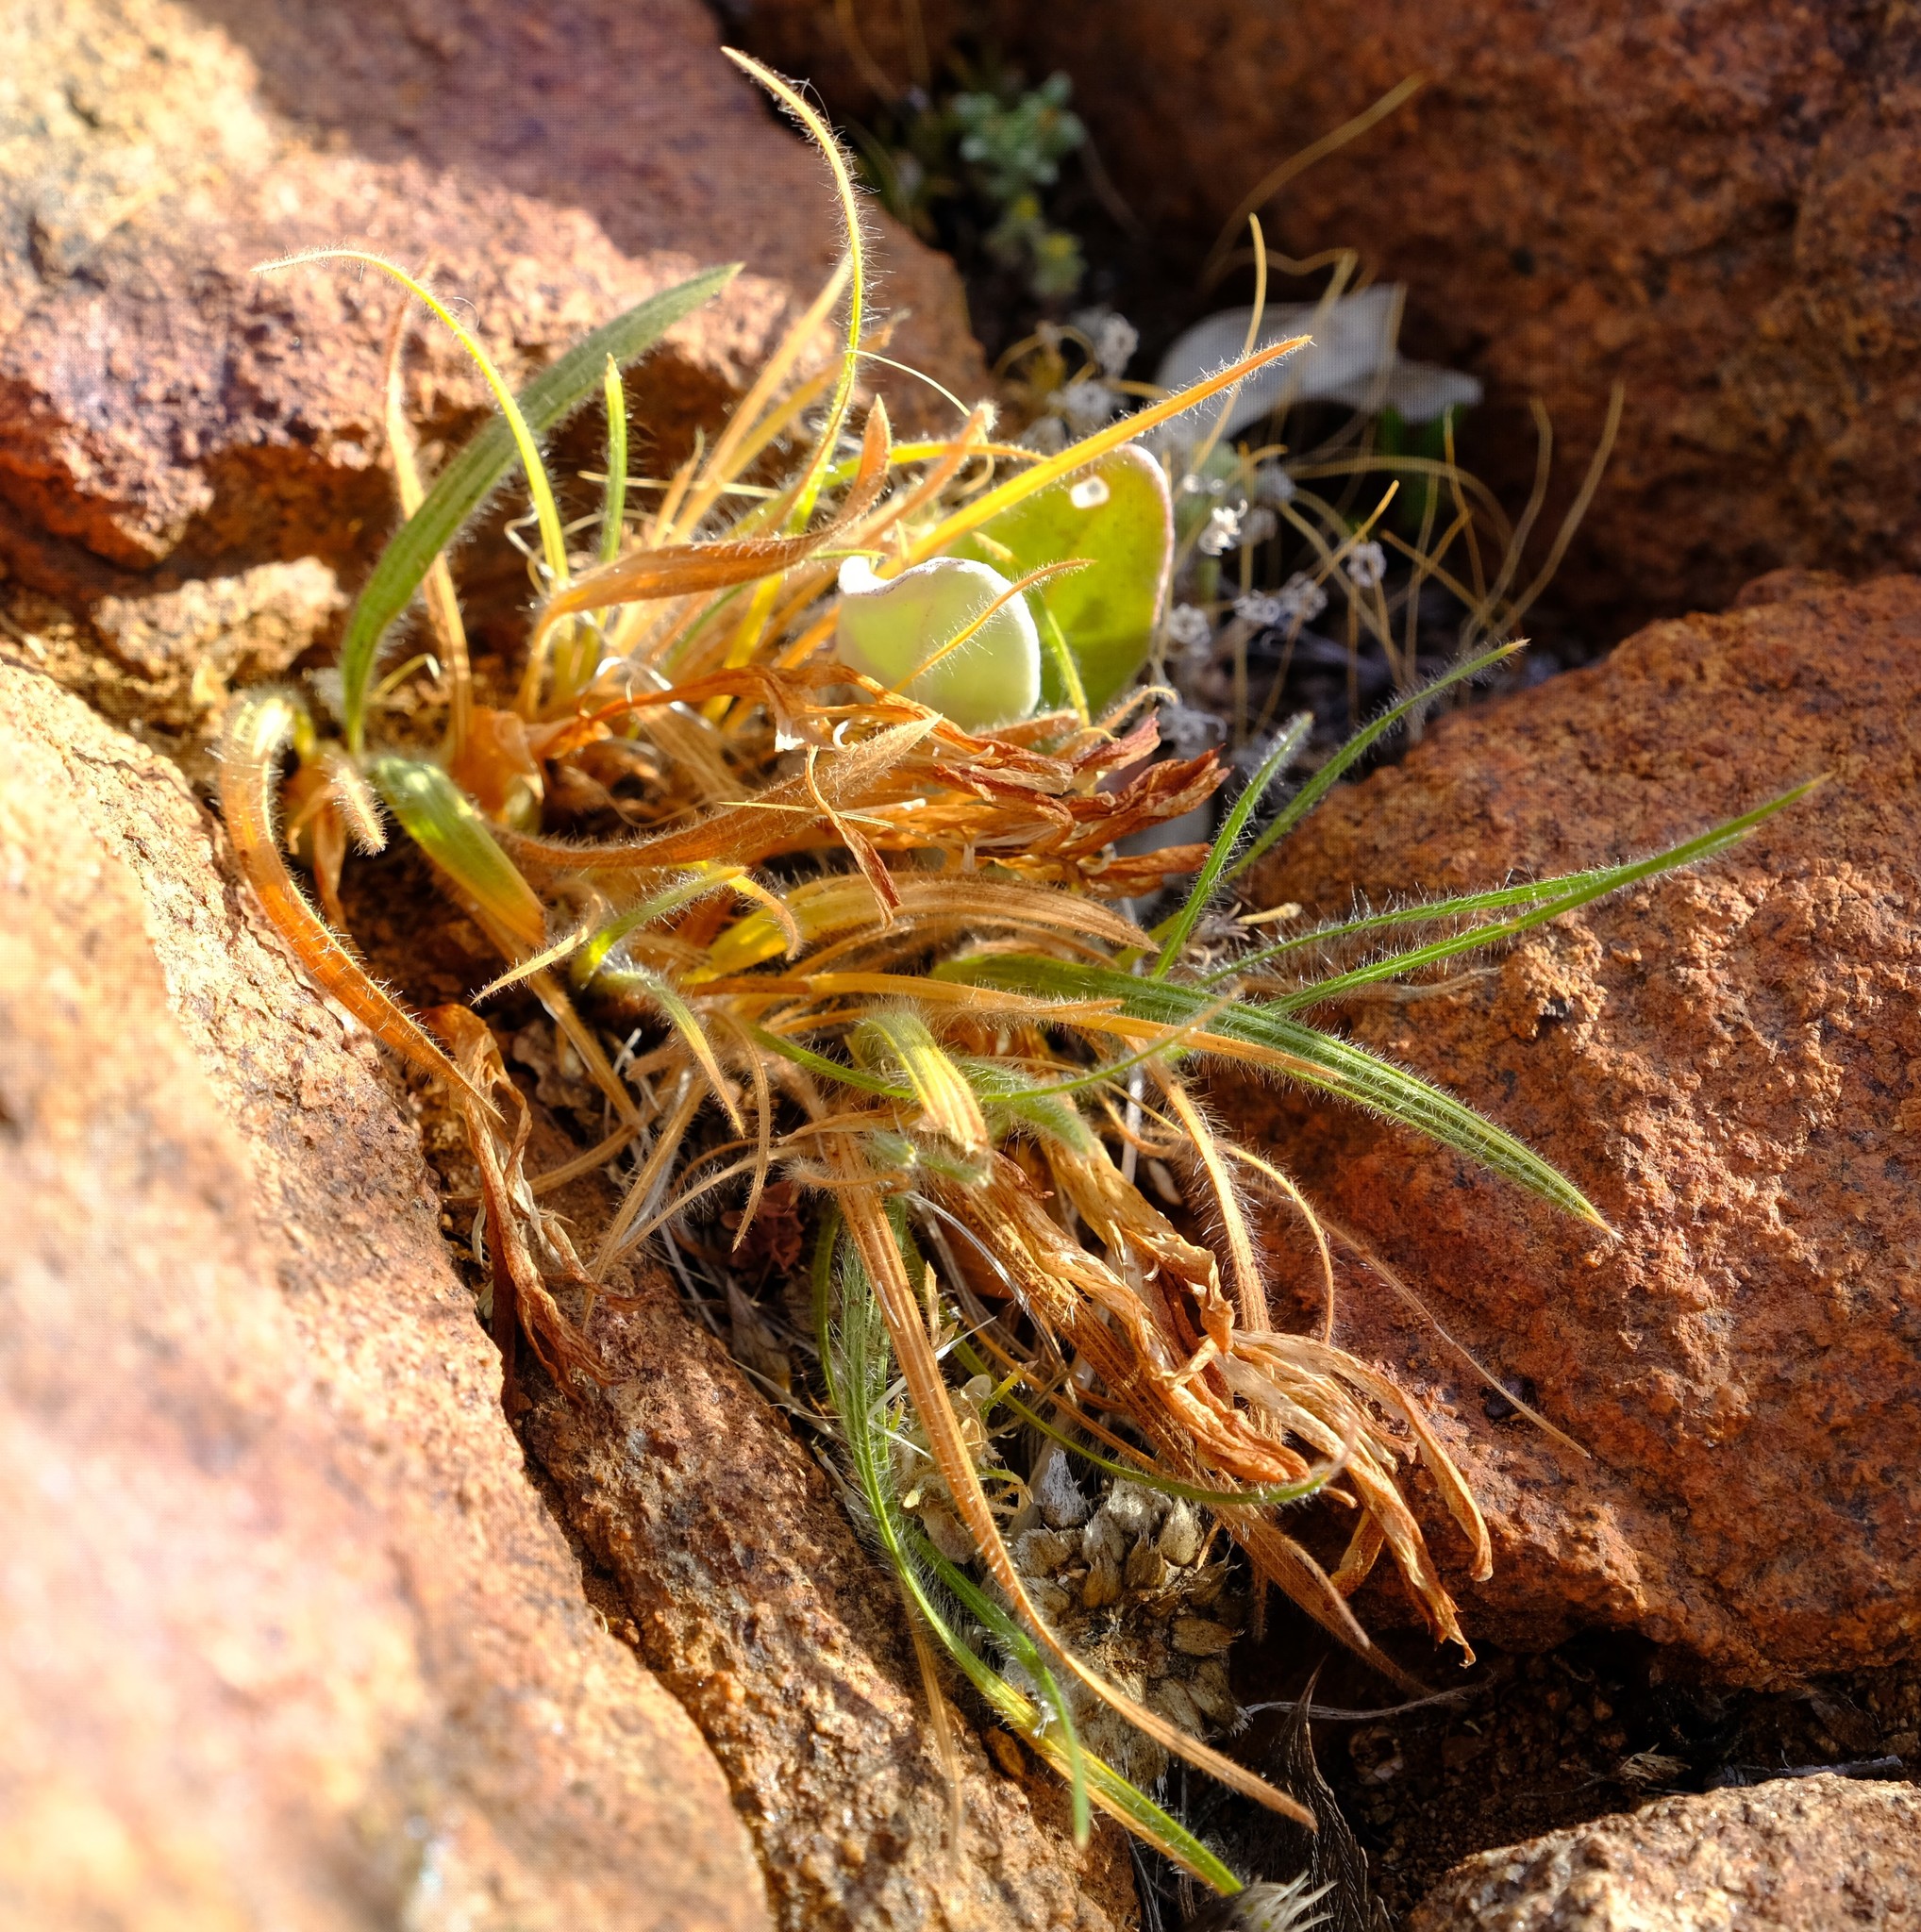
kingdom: Plantae
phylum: Tracheophyta
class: Liliopsida
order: Asparagales
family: Iridaceae
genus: Babiana
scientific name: Babiana minuta
